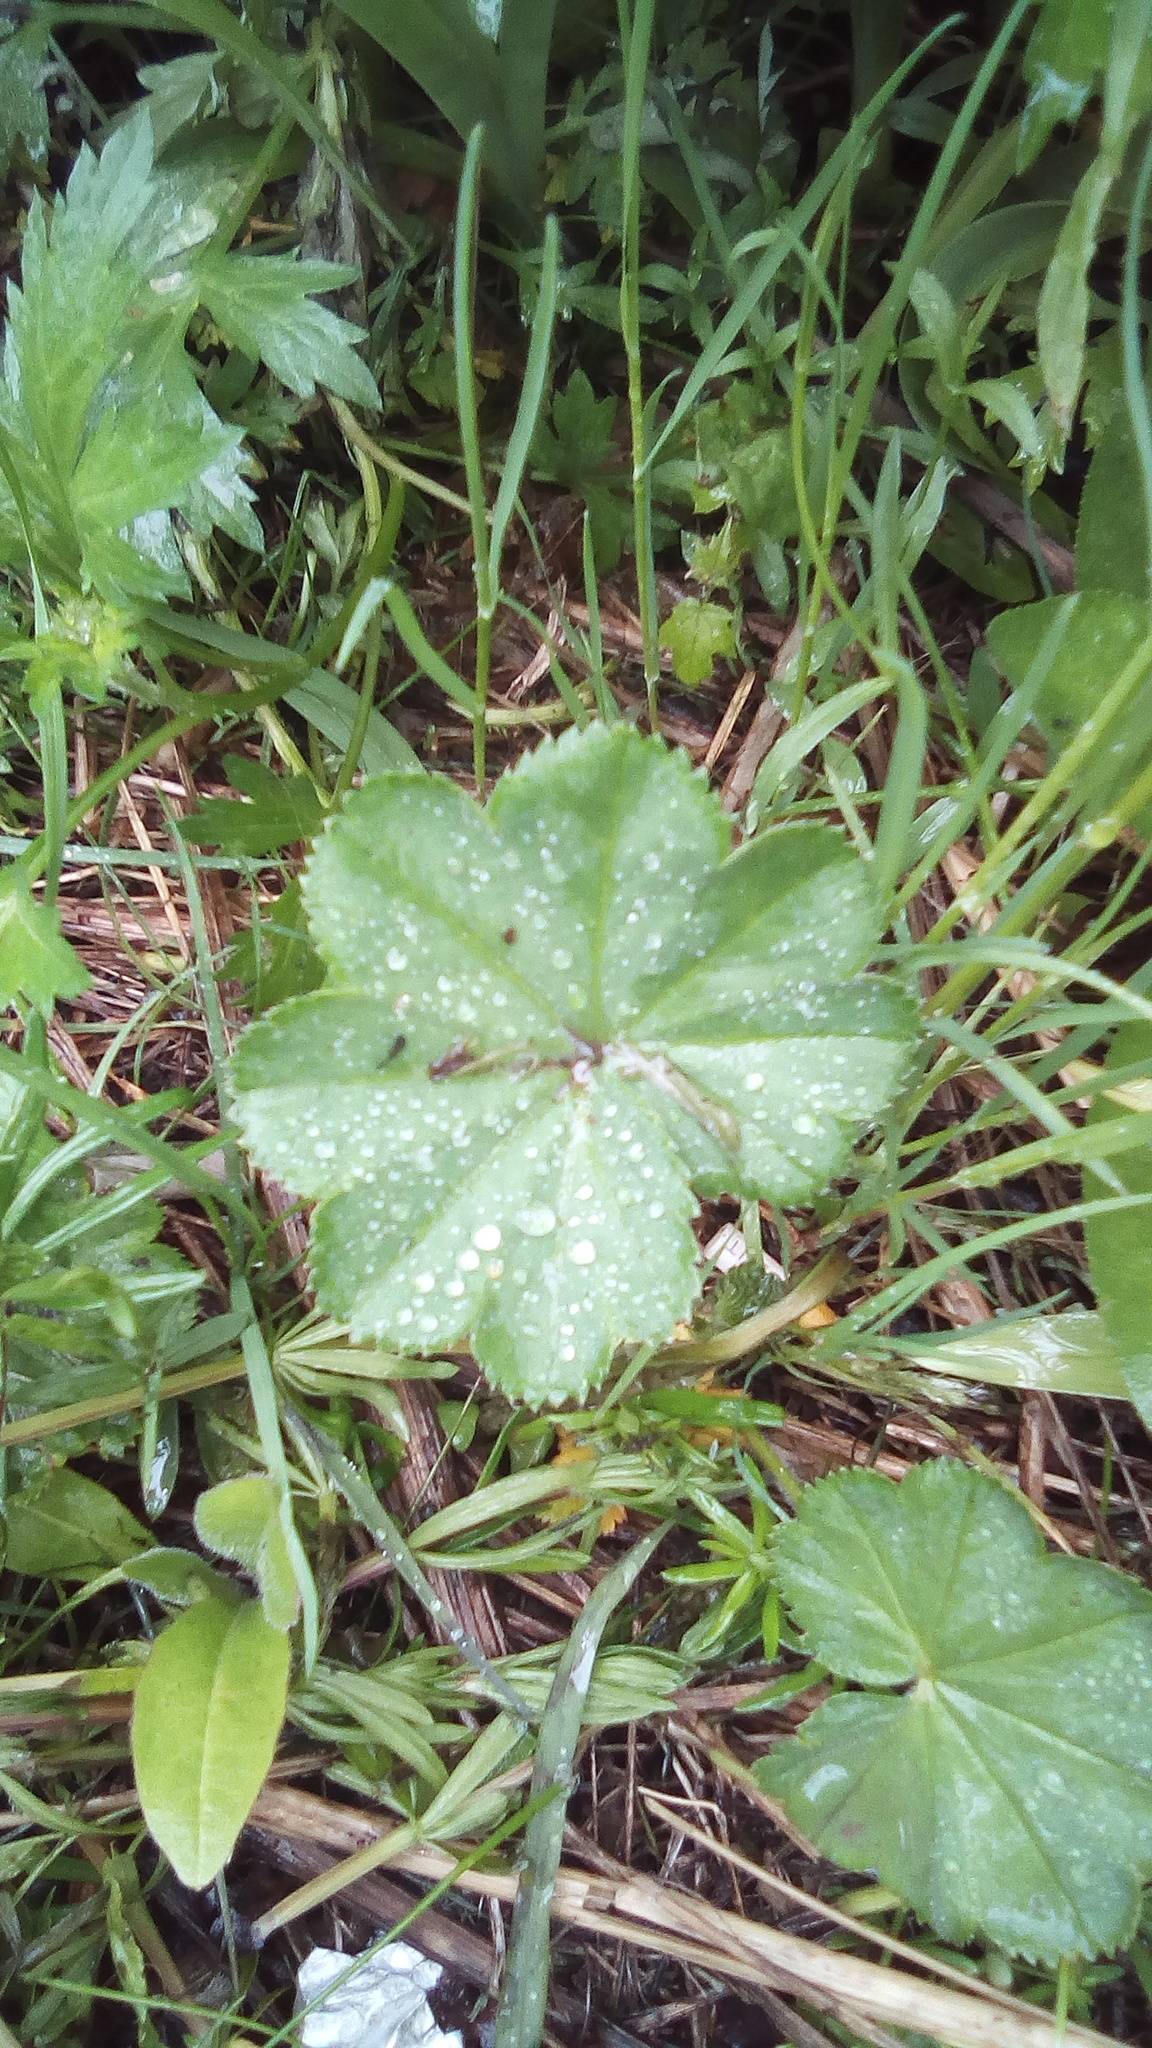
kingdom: Plantae
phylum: Tracheophyta
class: Magnoliopsida
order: Rosales
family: Rosaceae
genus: Alchemilla
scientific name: Alchemilla
